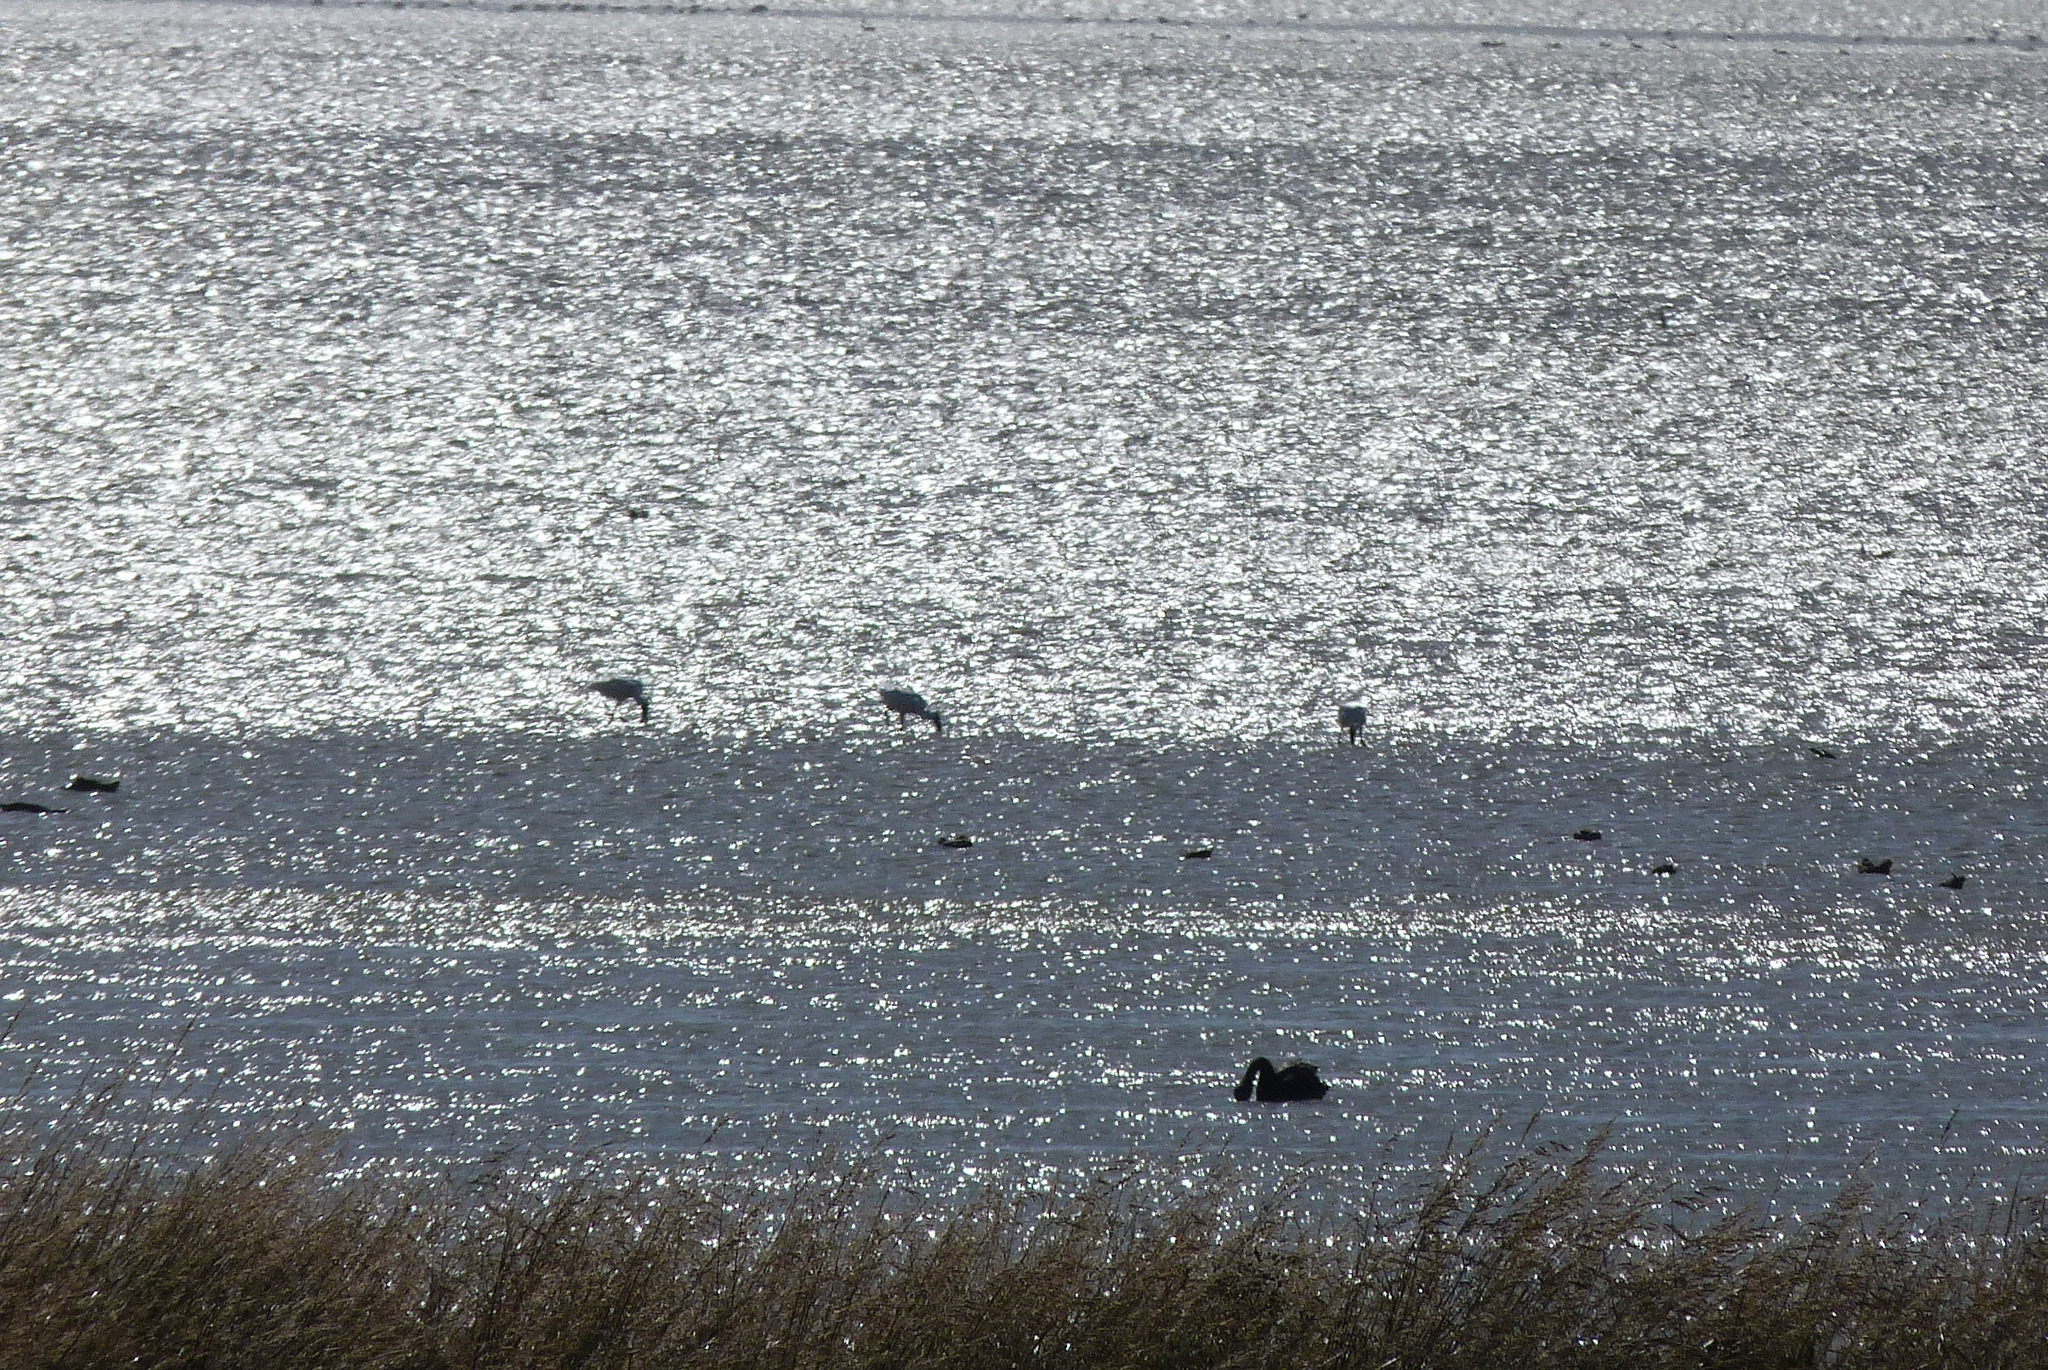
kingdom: Animalia
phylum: Chordata
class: Aves
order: Pelecaniformes
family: Threskiornithidae
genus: Platalea
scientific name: Platalea regia
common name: Royal spoonbill
